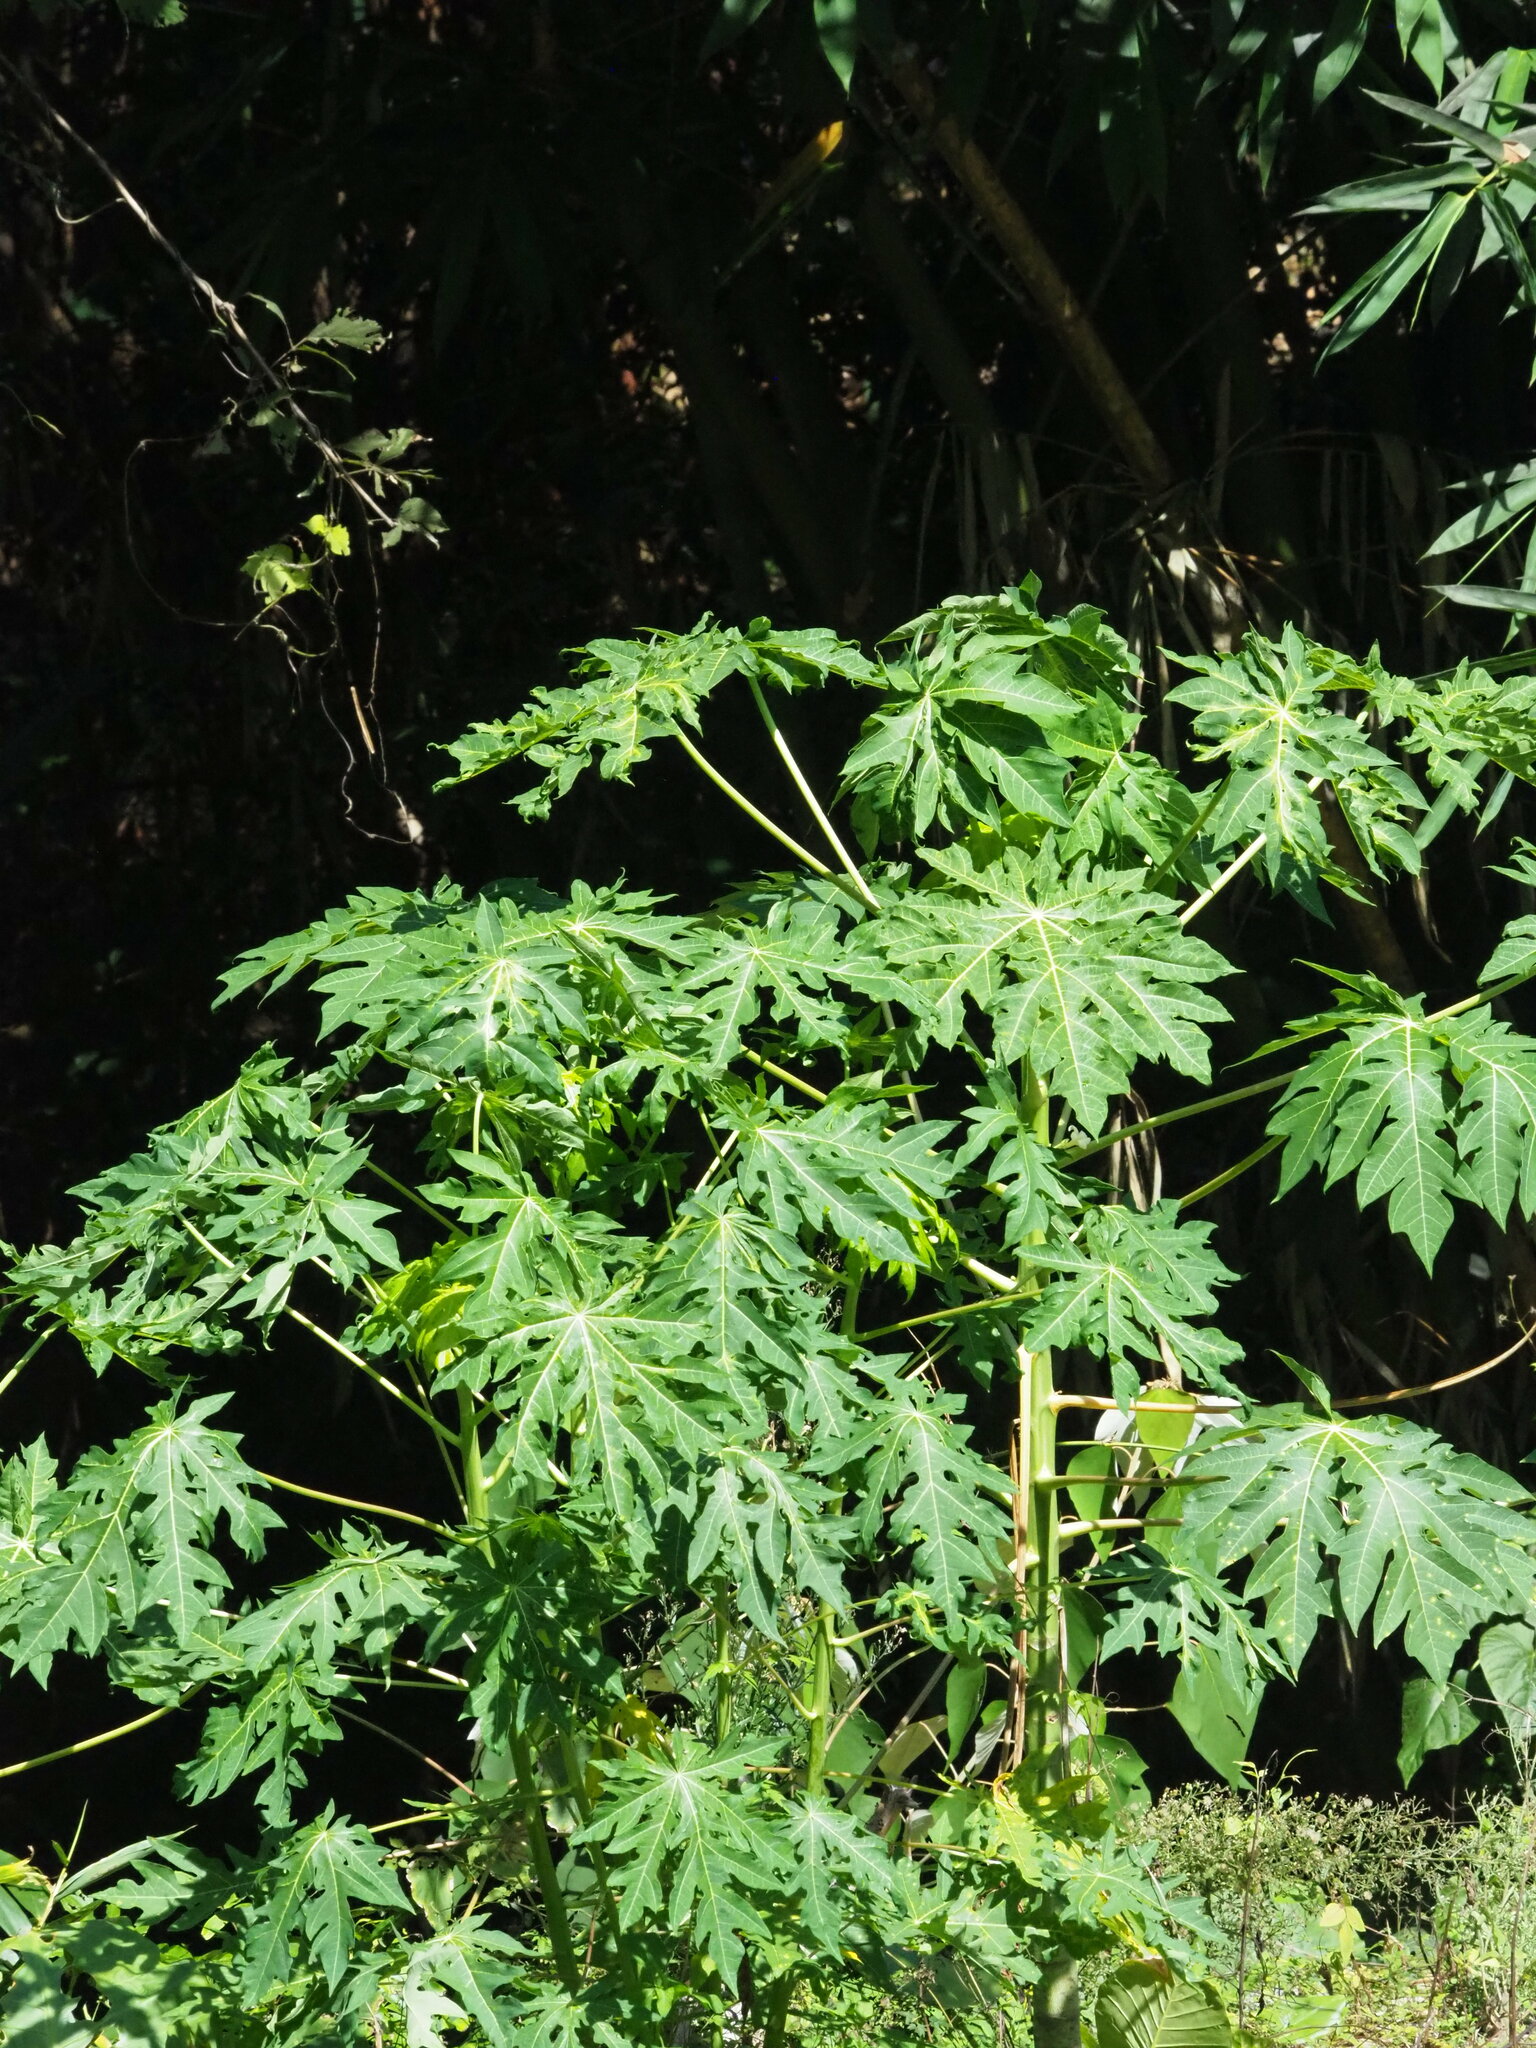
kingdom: Plantae
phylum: Tracheophyta
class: Magnoliopsida
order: Brassicales
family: Caricaceae
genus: Carica
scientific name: Carica papaya
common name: Papaya
